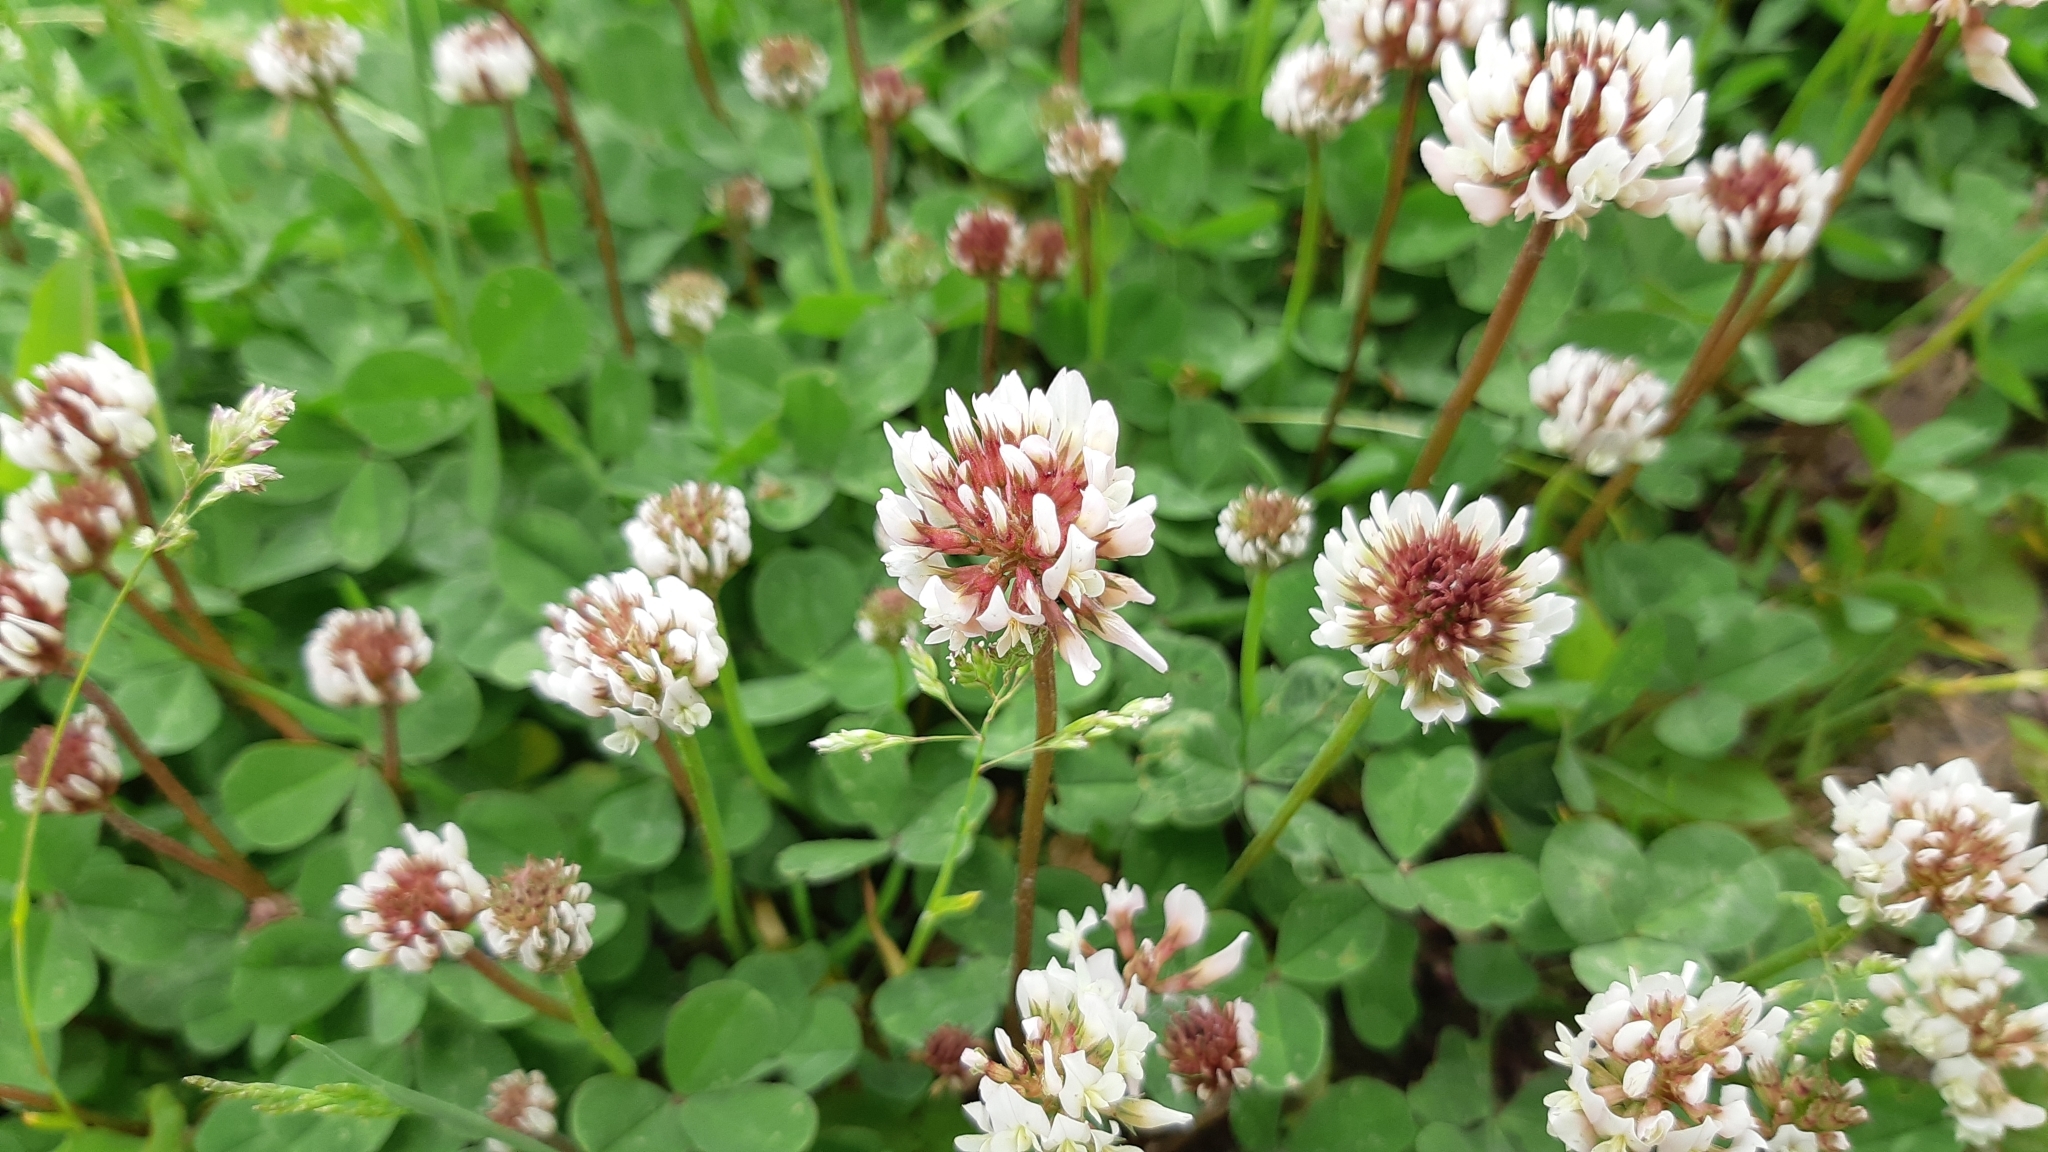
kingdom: Plantae
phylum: Tracheophyta
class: Magnoliopsida
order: Fabales
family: Fabaceae
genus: Trifolium
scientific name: Trifolium repens
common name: White clover
